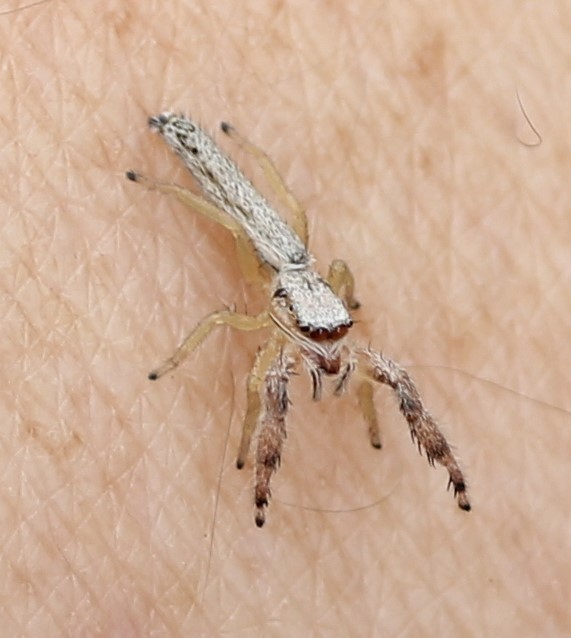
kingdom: Animalia
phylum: Arthropoda
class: Arachnida
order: Araneae
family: Salticidae
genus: Marpissa
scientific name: Marpissa pikei
